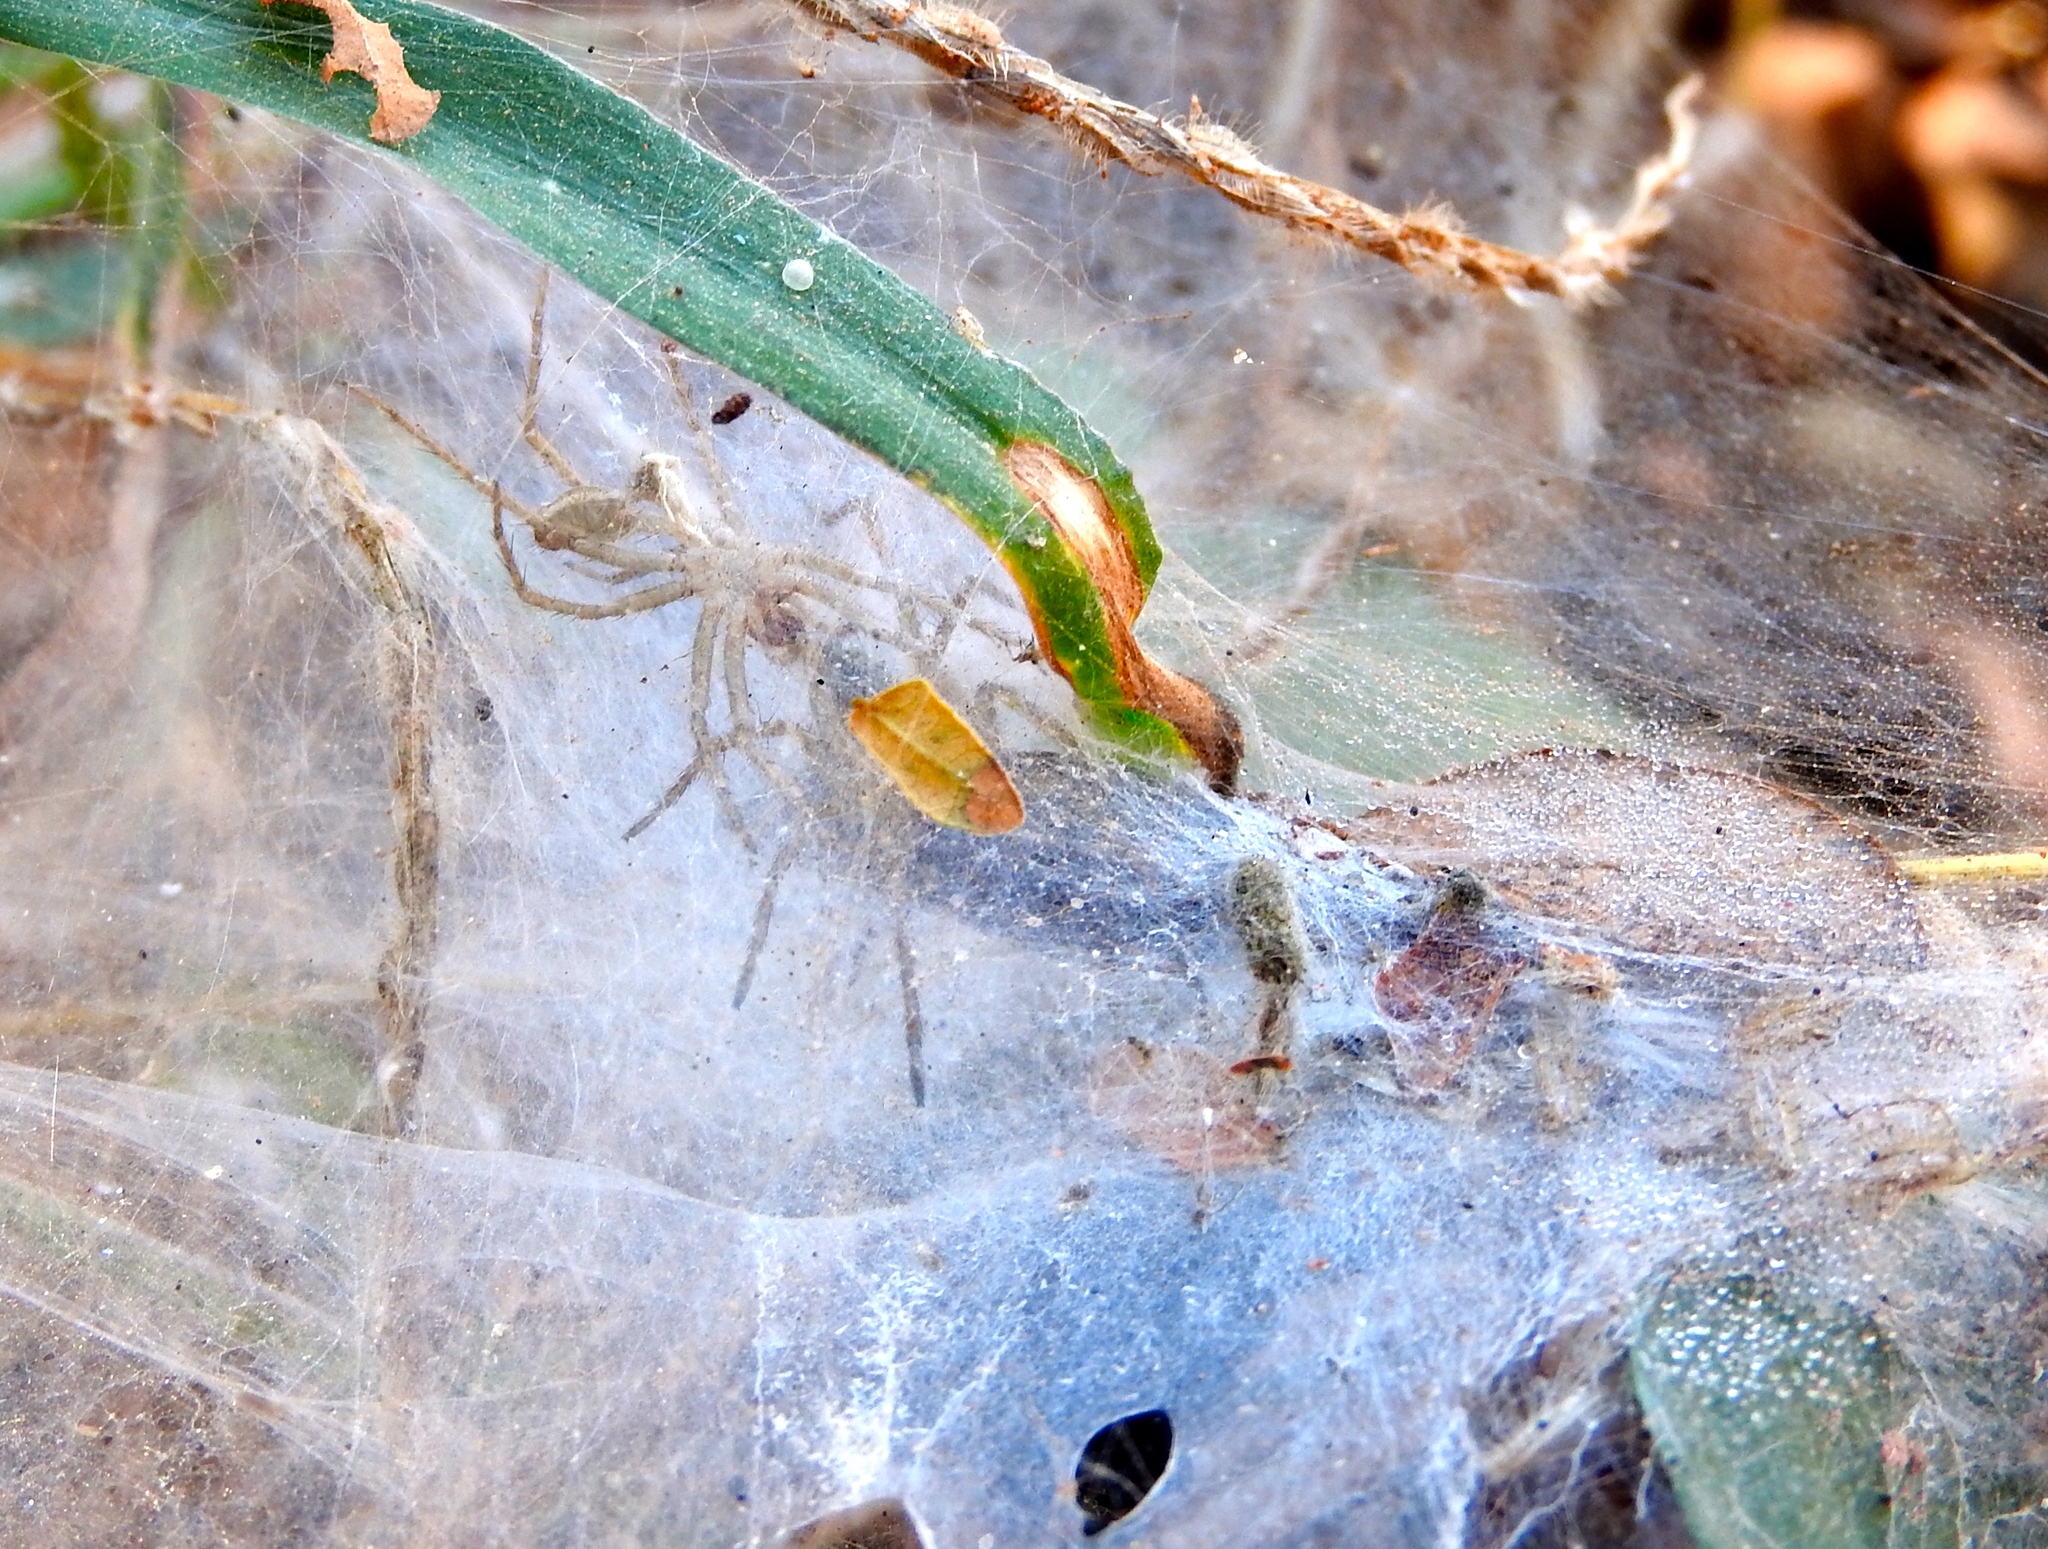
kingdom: Animalia
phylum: Arthropoda
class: Arachnida
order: Araneae
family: Lycosidae
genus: Sosippus
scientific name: Sosippus
